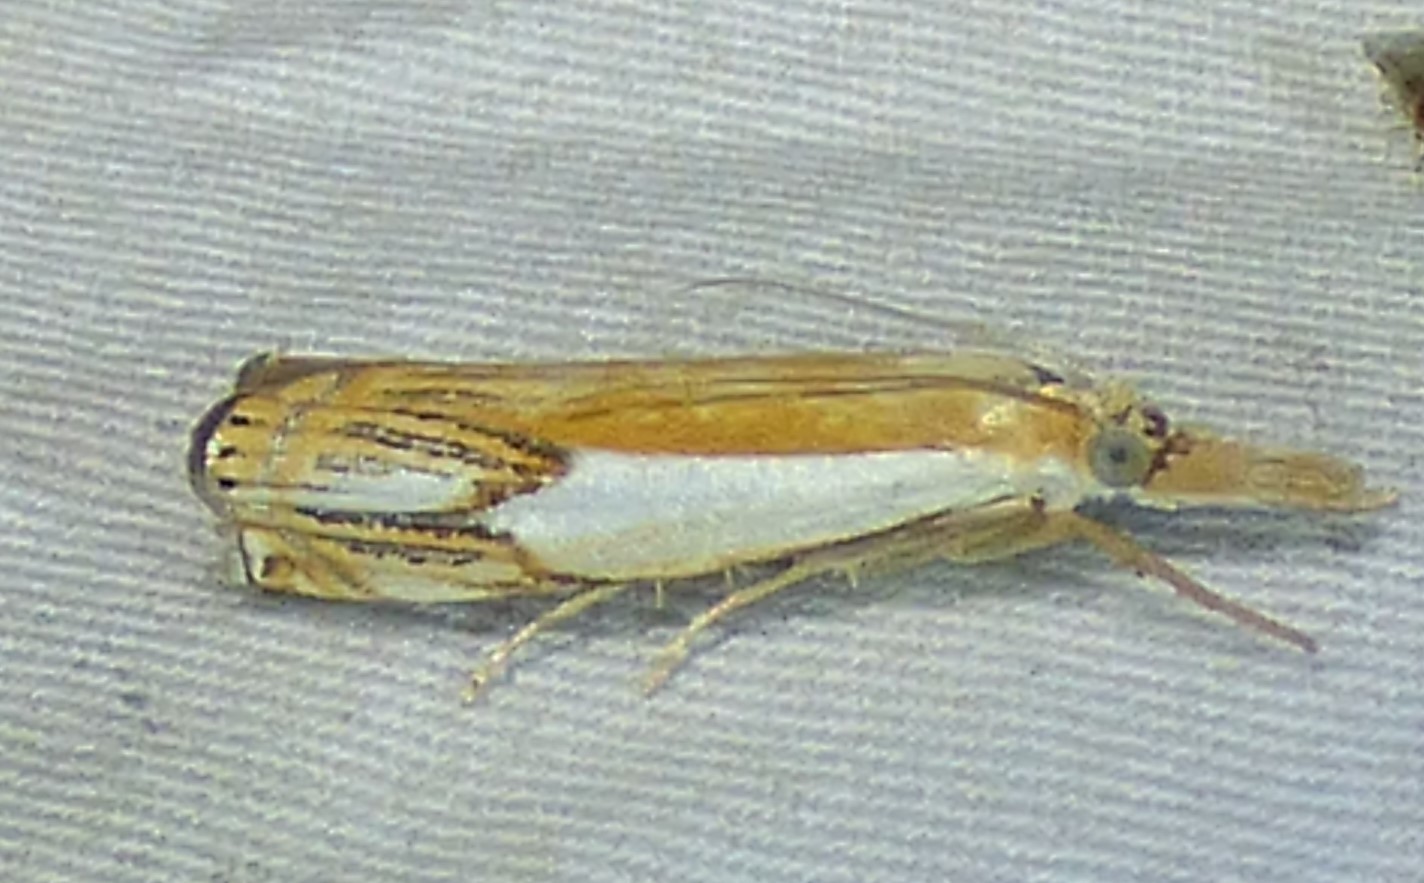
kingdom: Animalia
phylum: Arthropoda
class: Insecta
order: Lepidoptera
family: Crambidae
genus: Crambus
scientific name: Crambus agitatellus
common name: Double-banded grass-veneer
